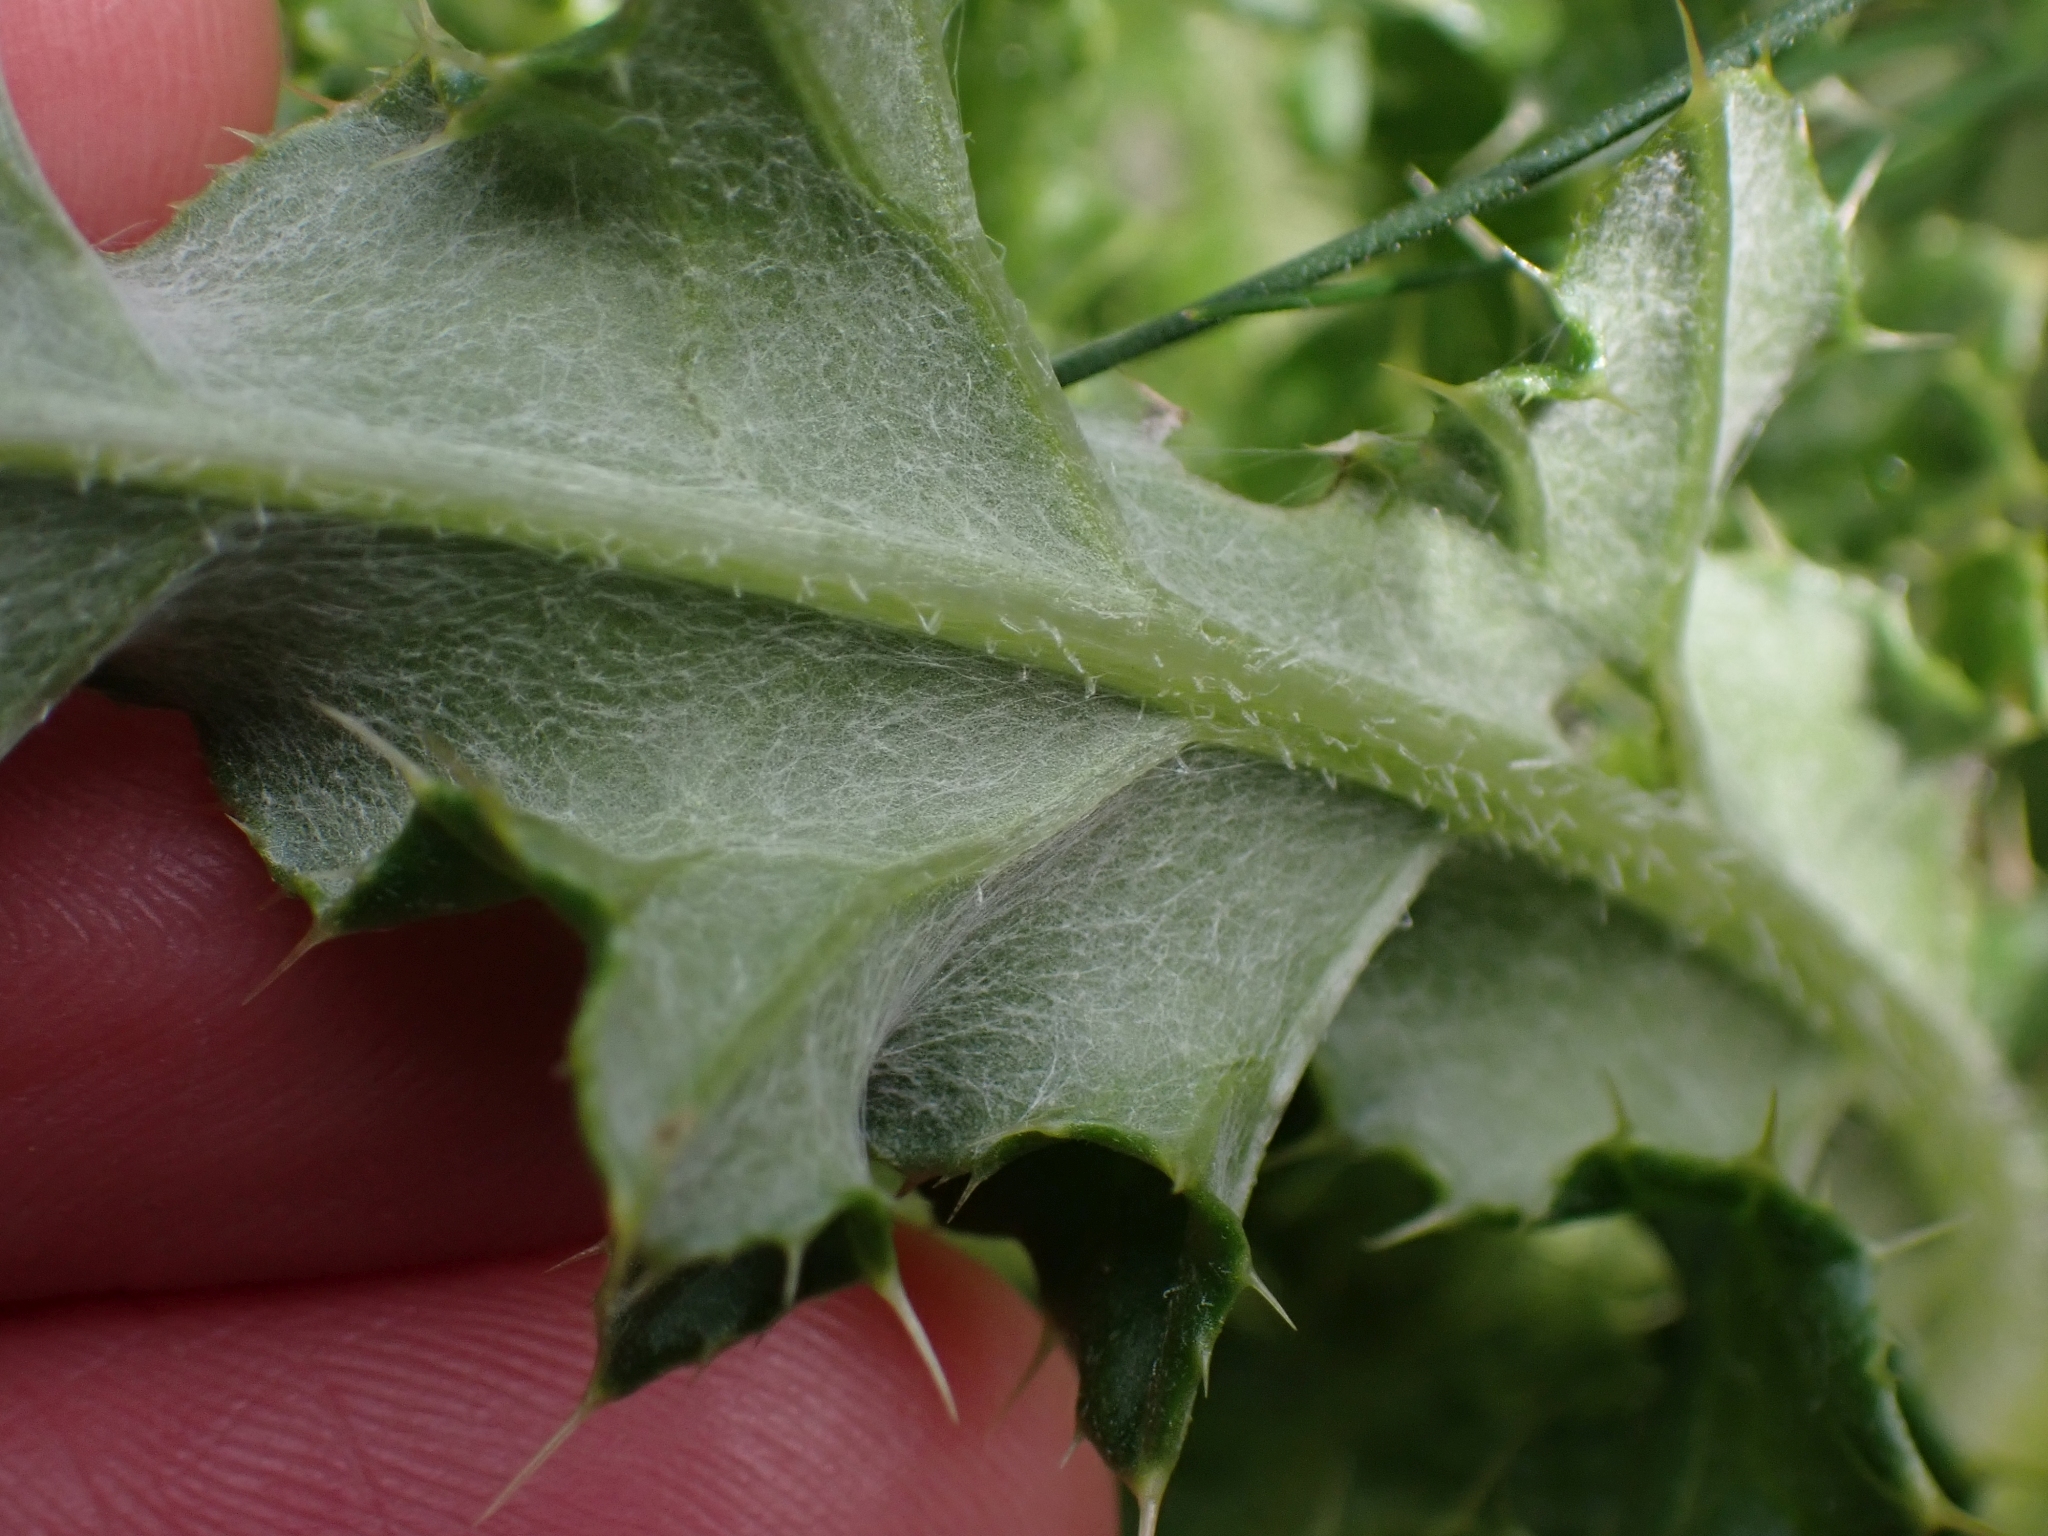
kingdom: Plantae
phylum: Tracheophyta
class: Magnoliopsida
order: Asterales
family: Asteraceae
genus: Cirsium
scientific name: Cirsium arvense
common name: Creeping thistle
